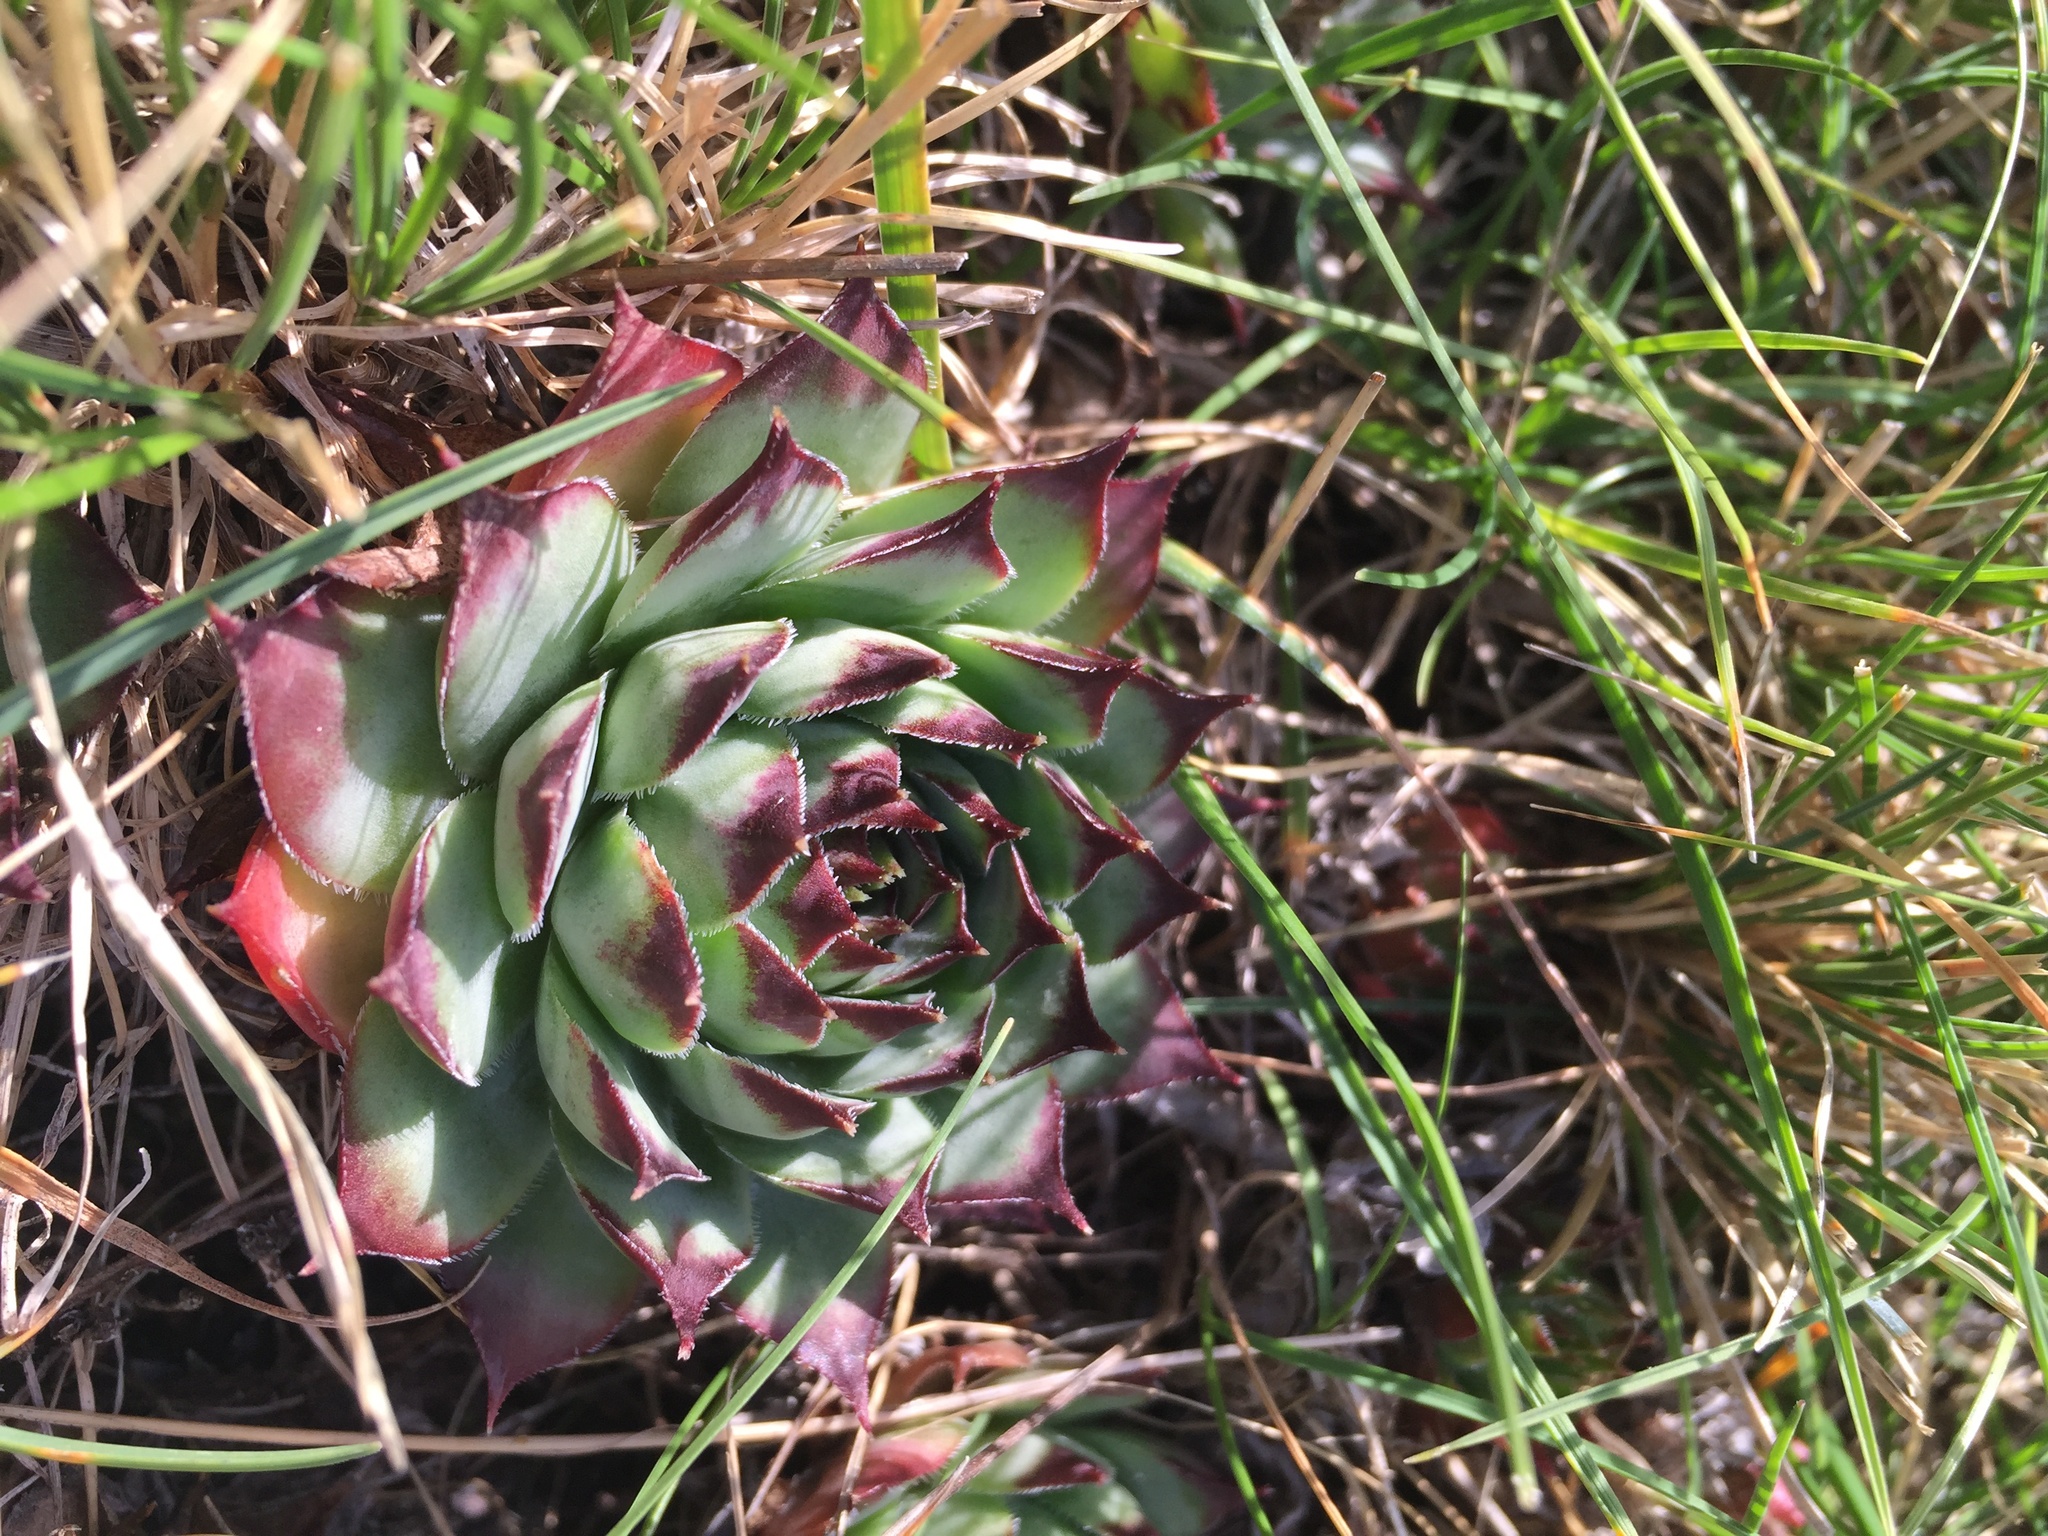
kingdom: Plantae
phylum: Tracheophyta
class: Magnoliopsida
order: Saxifragales
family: Crassulaceae
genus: Sempervivum
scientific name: Sempervivum tectorum
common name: House-leek
